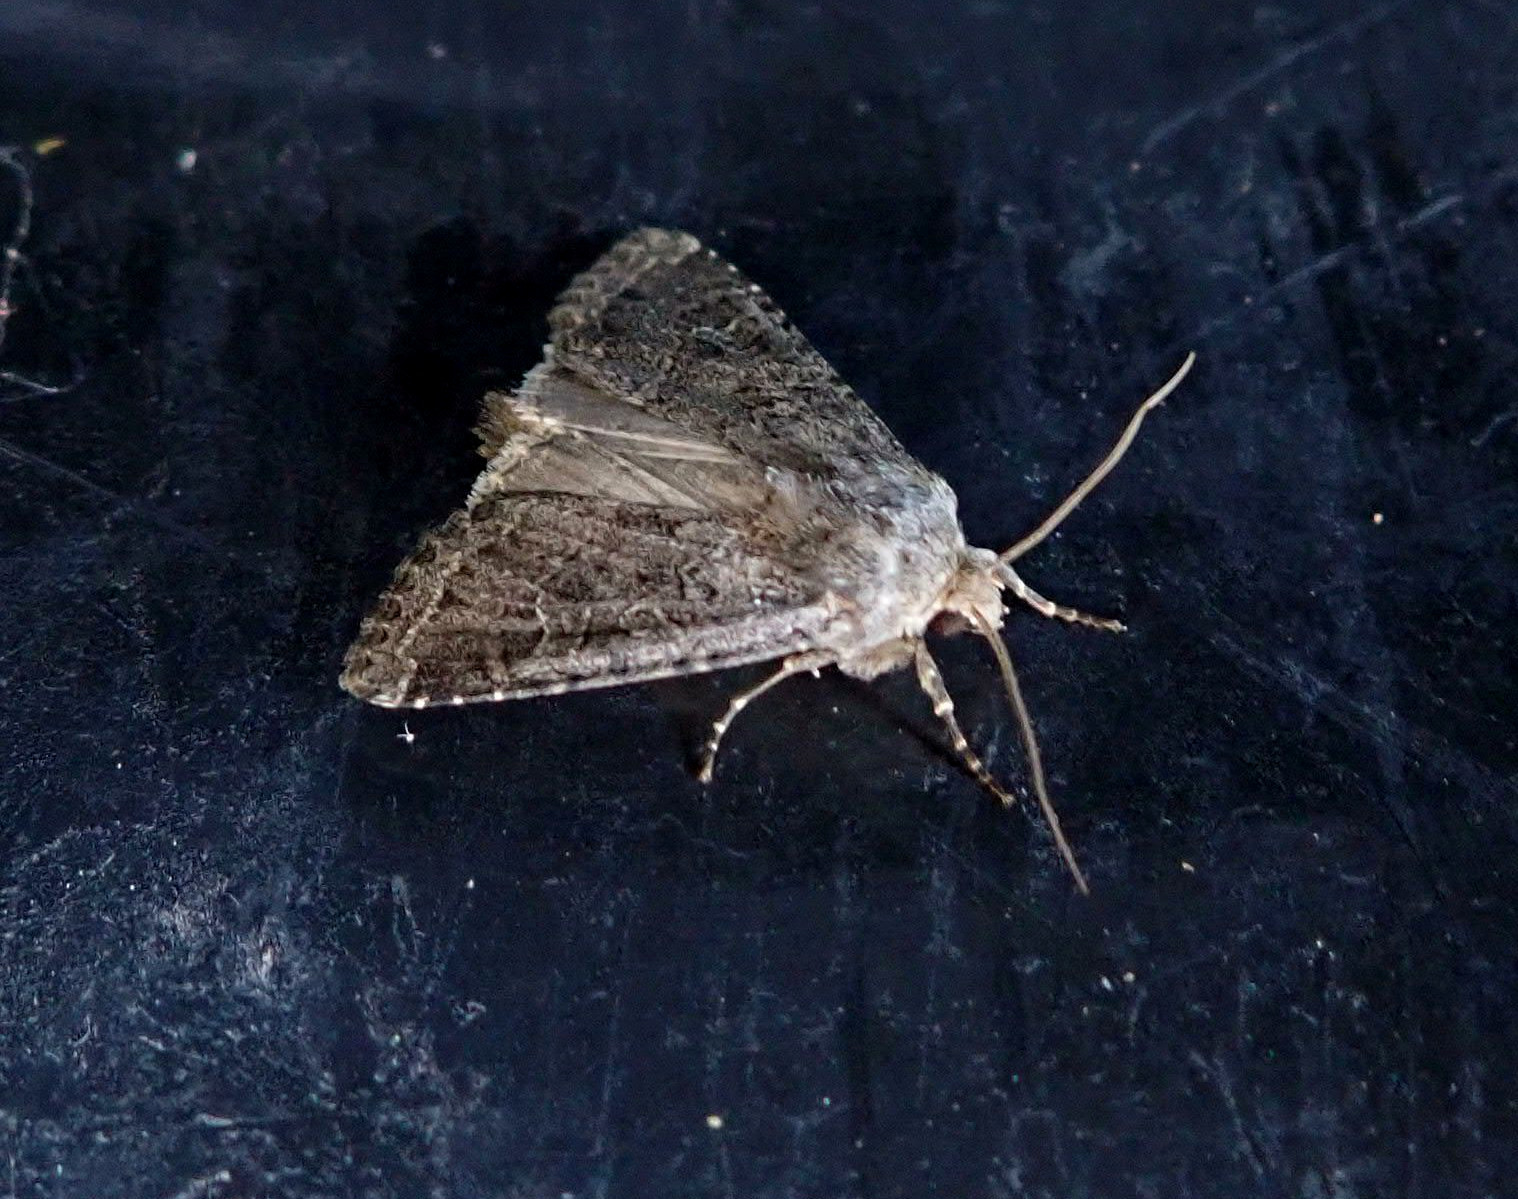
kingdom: Animalia
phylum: Arthropoda
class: Insecta
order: Lepidoptera
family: Noctuidae
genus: Apamea
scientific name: Apamea devastator
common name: Glassy cutworm
